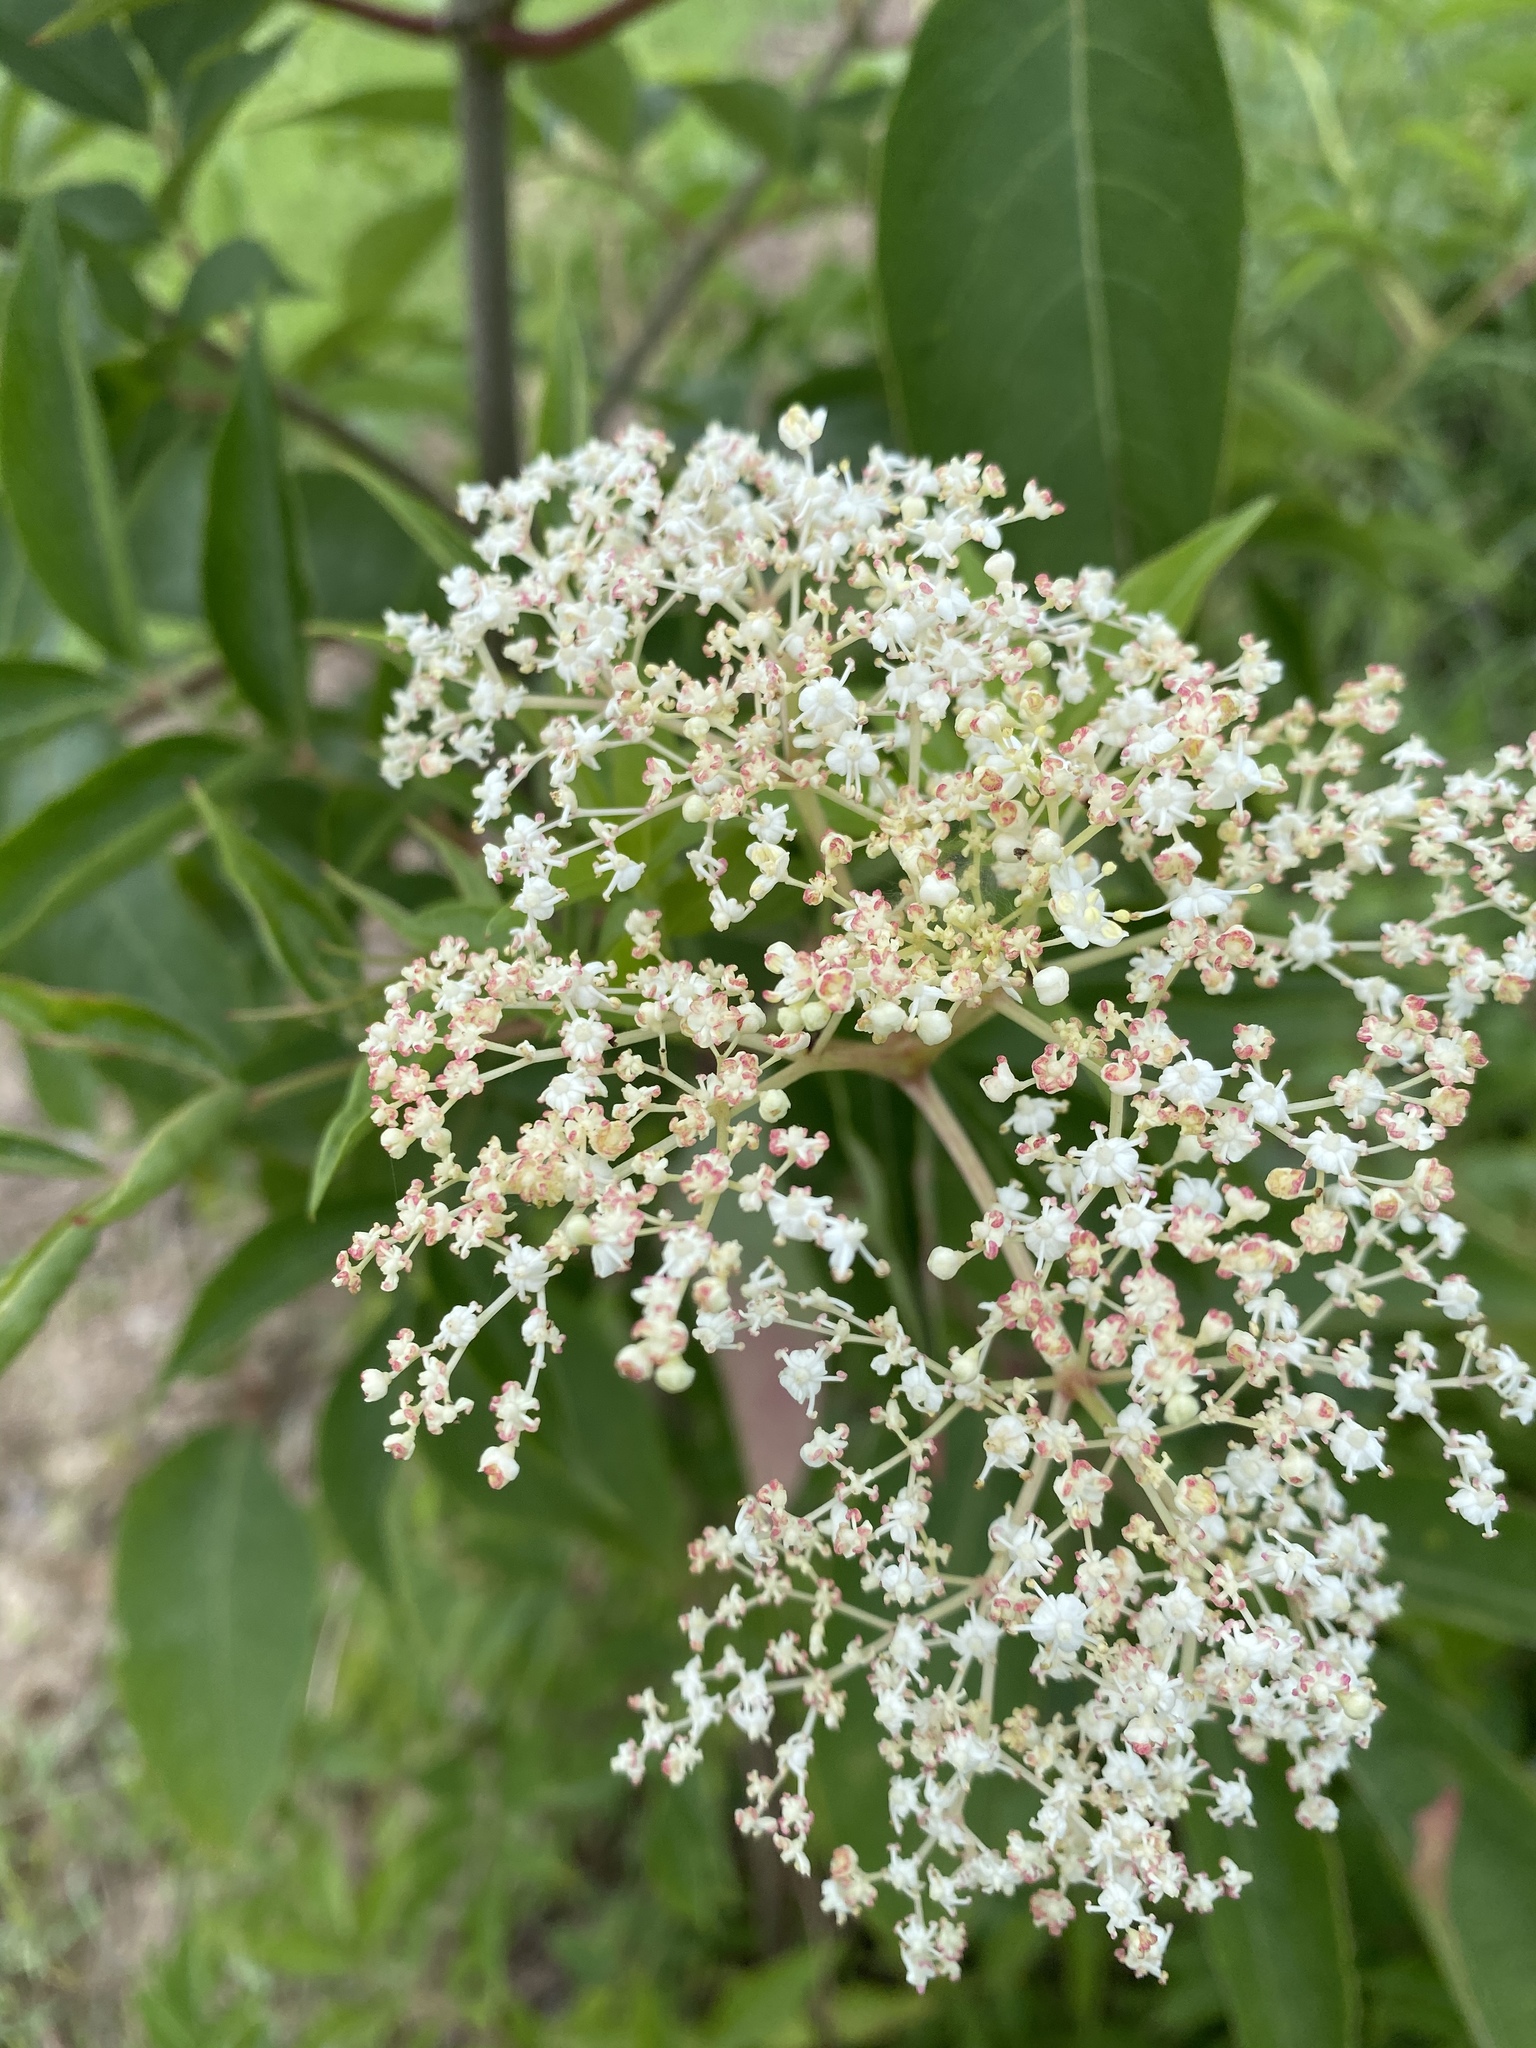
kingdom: Plantae
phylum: Tracheophyta
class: Magnoliopsida
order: Dipsacales
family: Viburnaceae
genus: Sambucus
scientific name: Sambucus canadensis
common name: American elder
